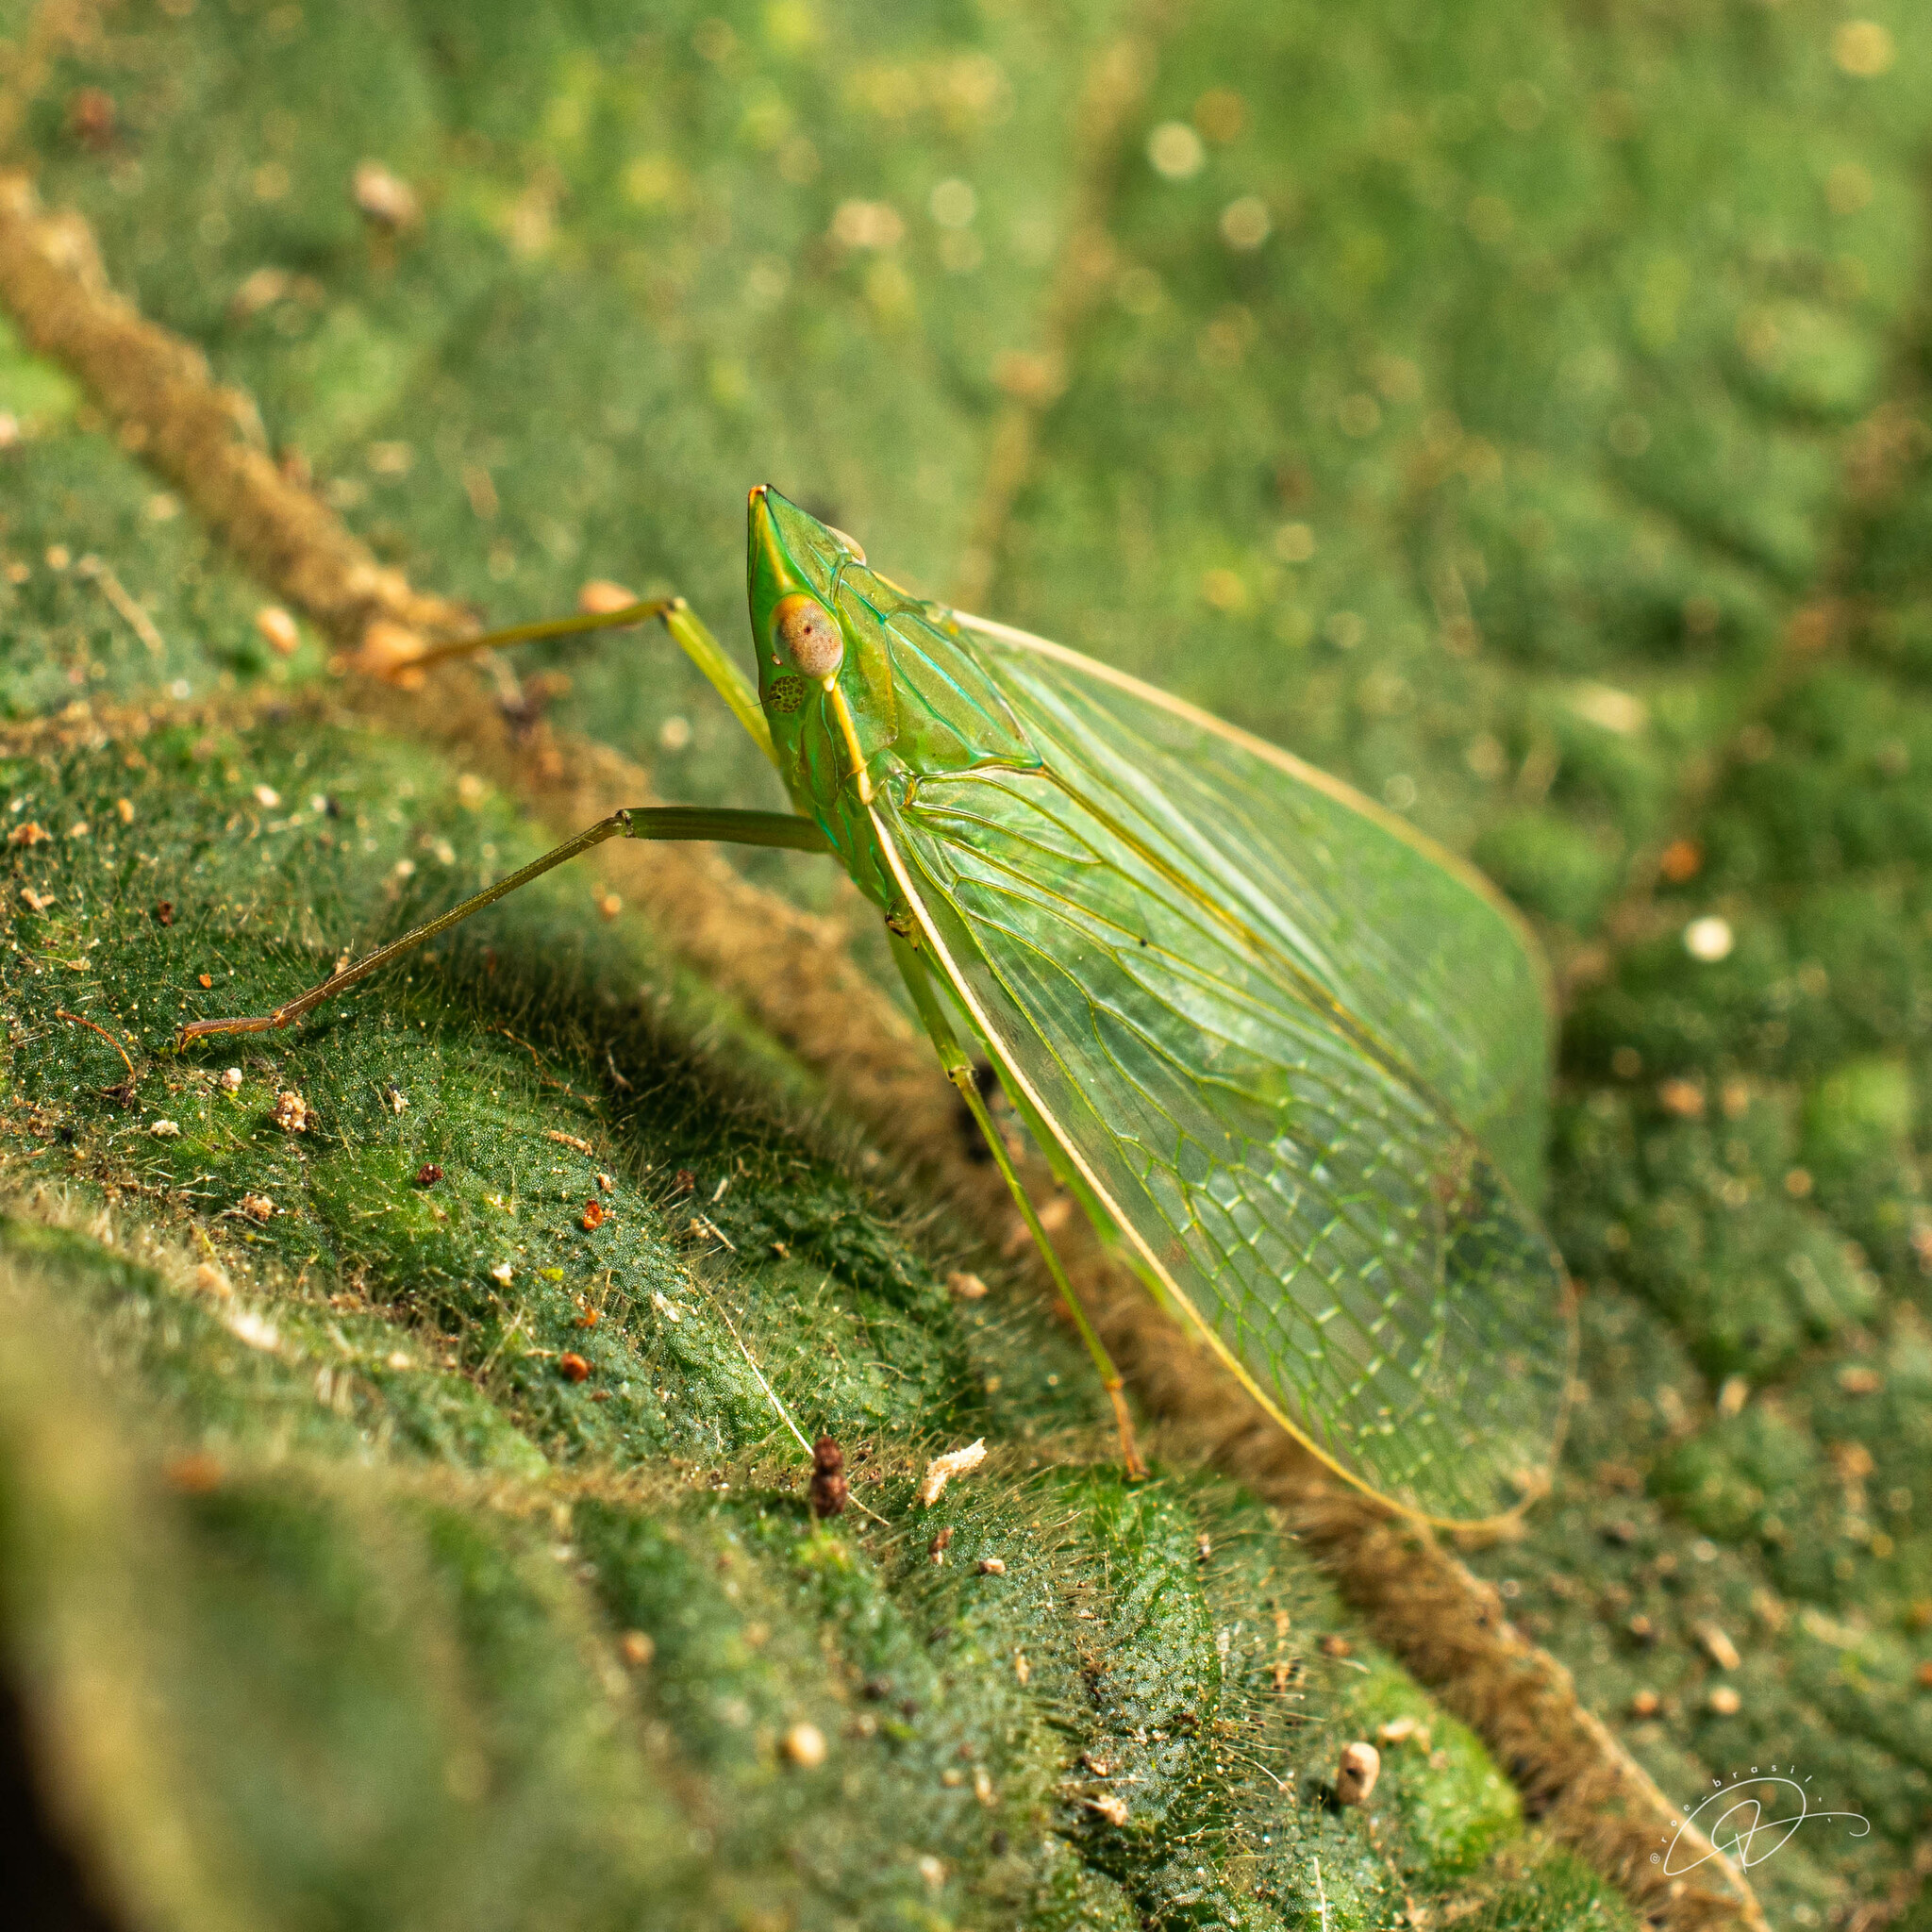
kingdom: Animalia
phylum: Arthropoda
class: Insecta
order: Hemiptera
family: Dictyopharidae
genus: Pteroplegma
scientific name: Pteroplegma jacobania
